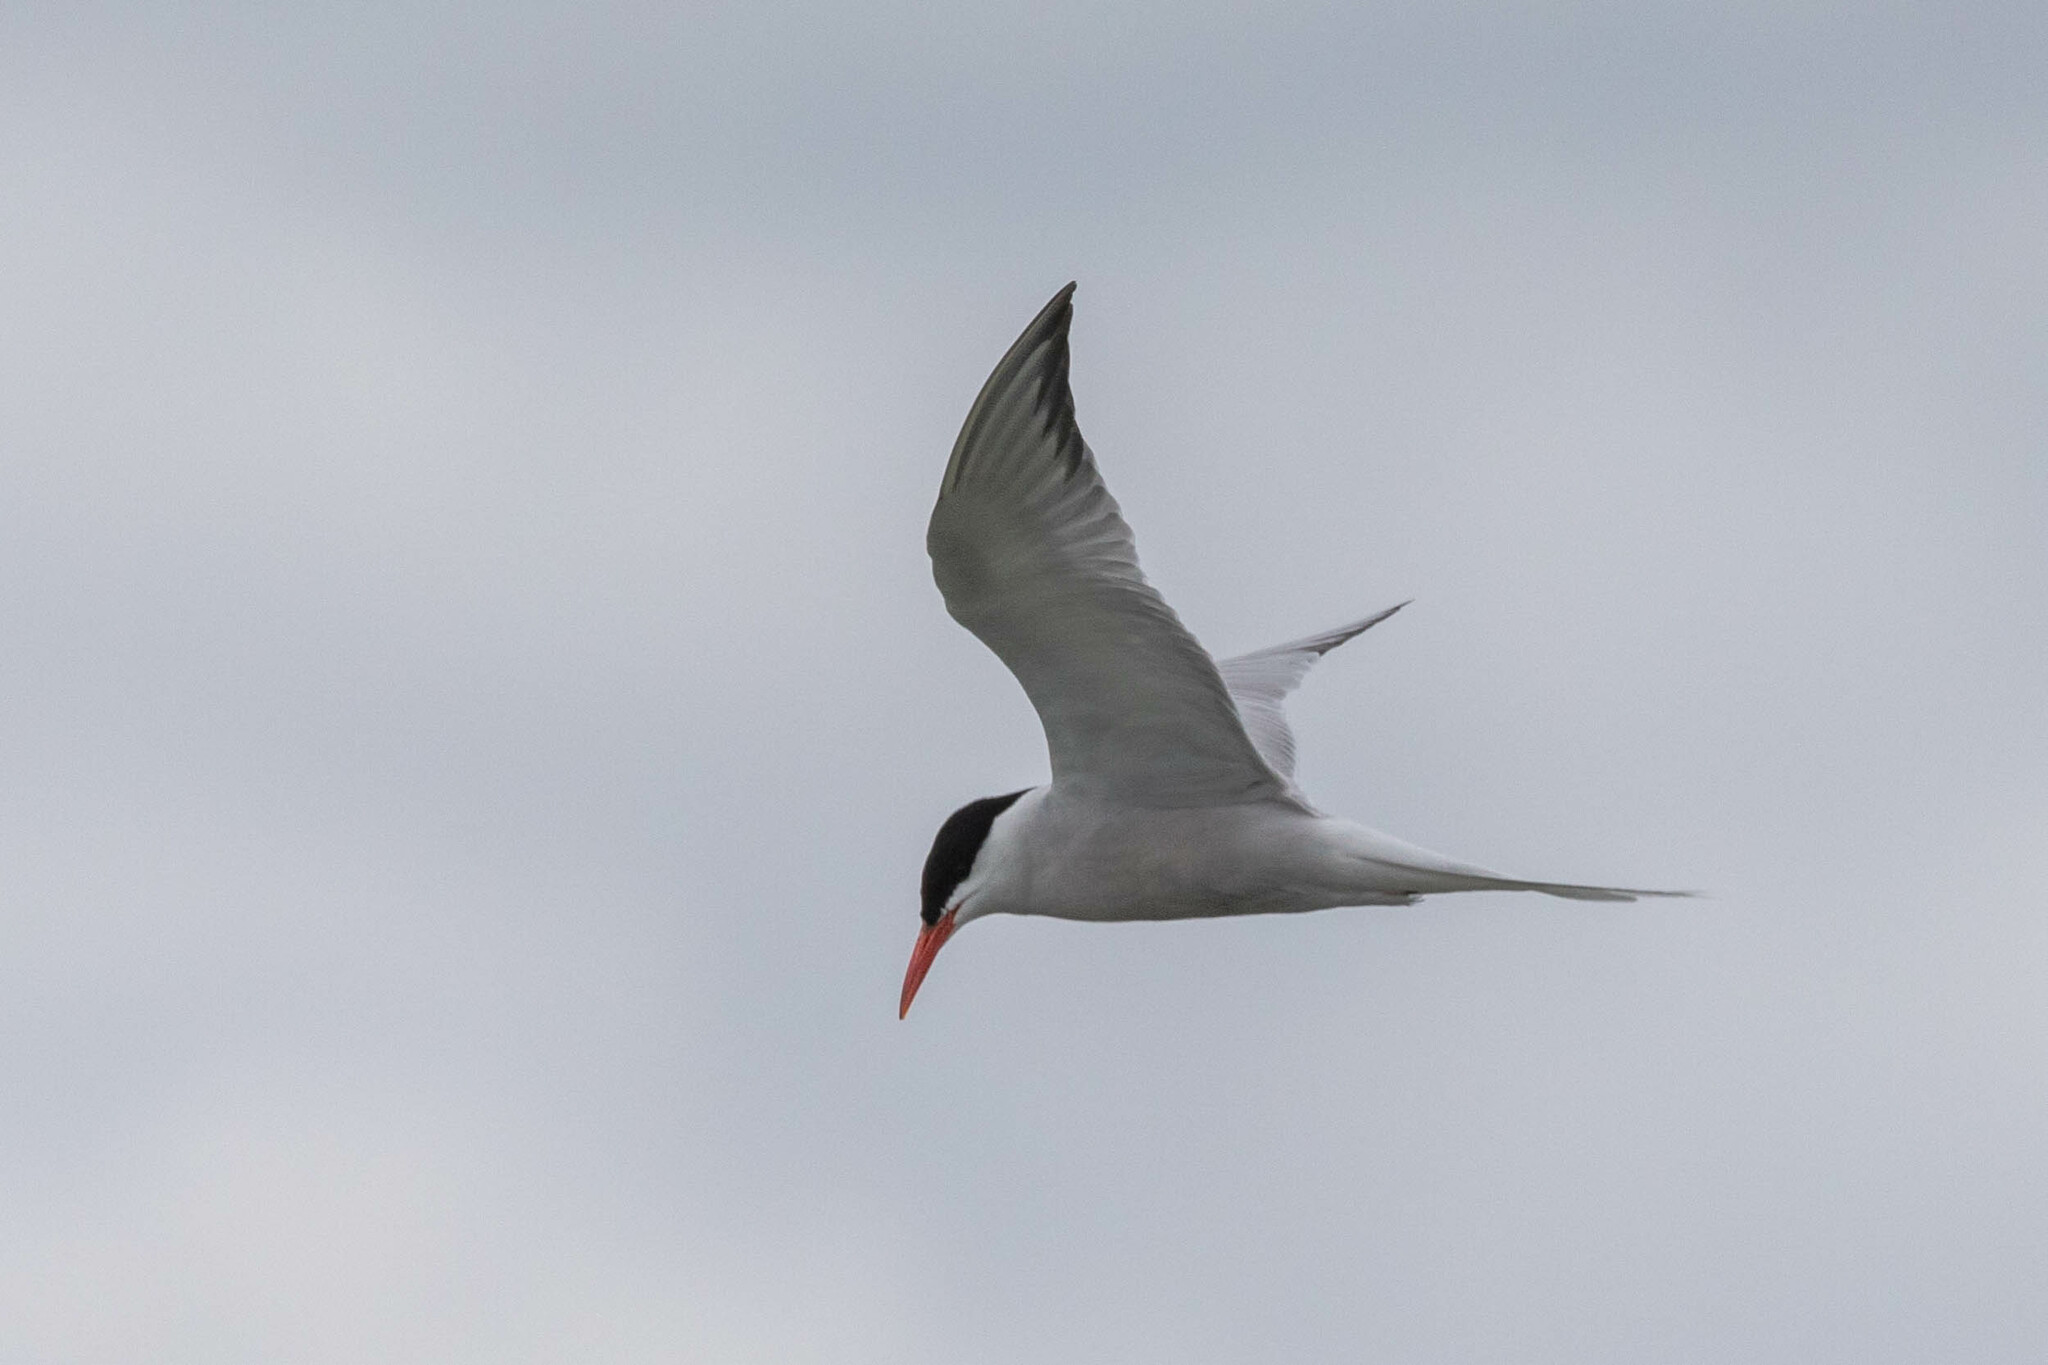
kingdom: Animalia
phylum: Chordata
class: Aves
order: Charadriiformes
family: Laridae
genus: Sterna
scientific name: Sterna hirundo
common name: Common tern
